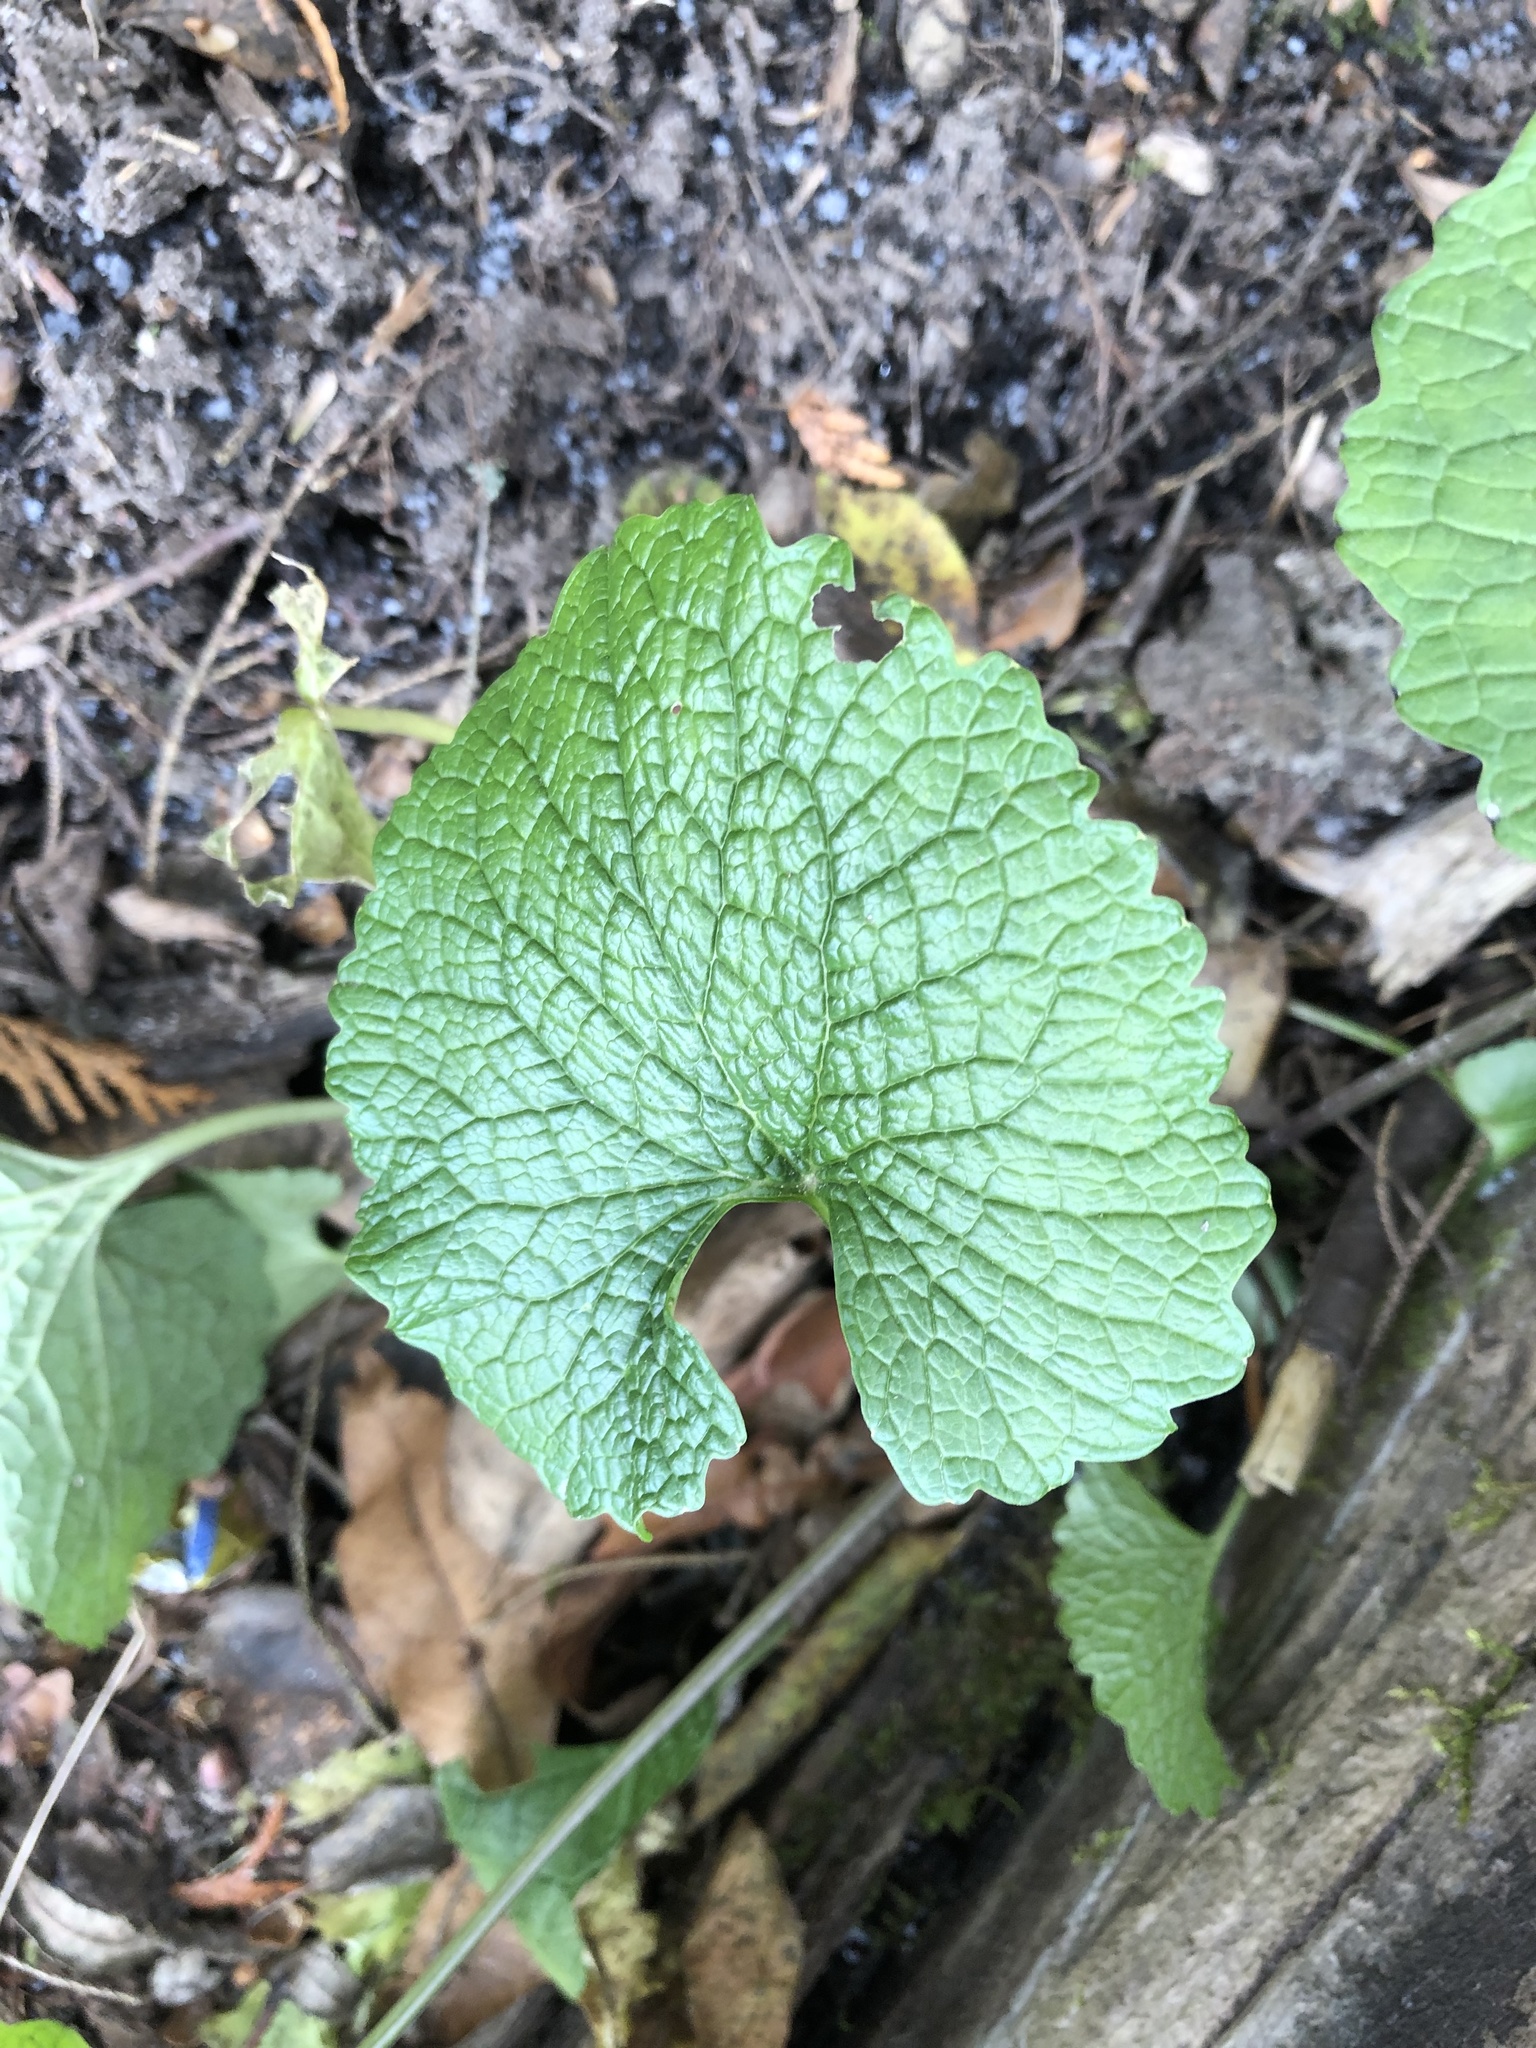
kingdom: Plantae
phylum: Tracheophyta
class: Magnoliopsida
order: Brassicales
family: Brassicaceae
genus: Alliaria
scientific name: Alliaria petiolata
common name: Garlic mustard
